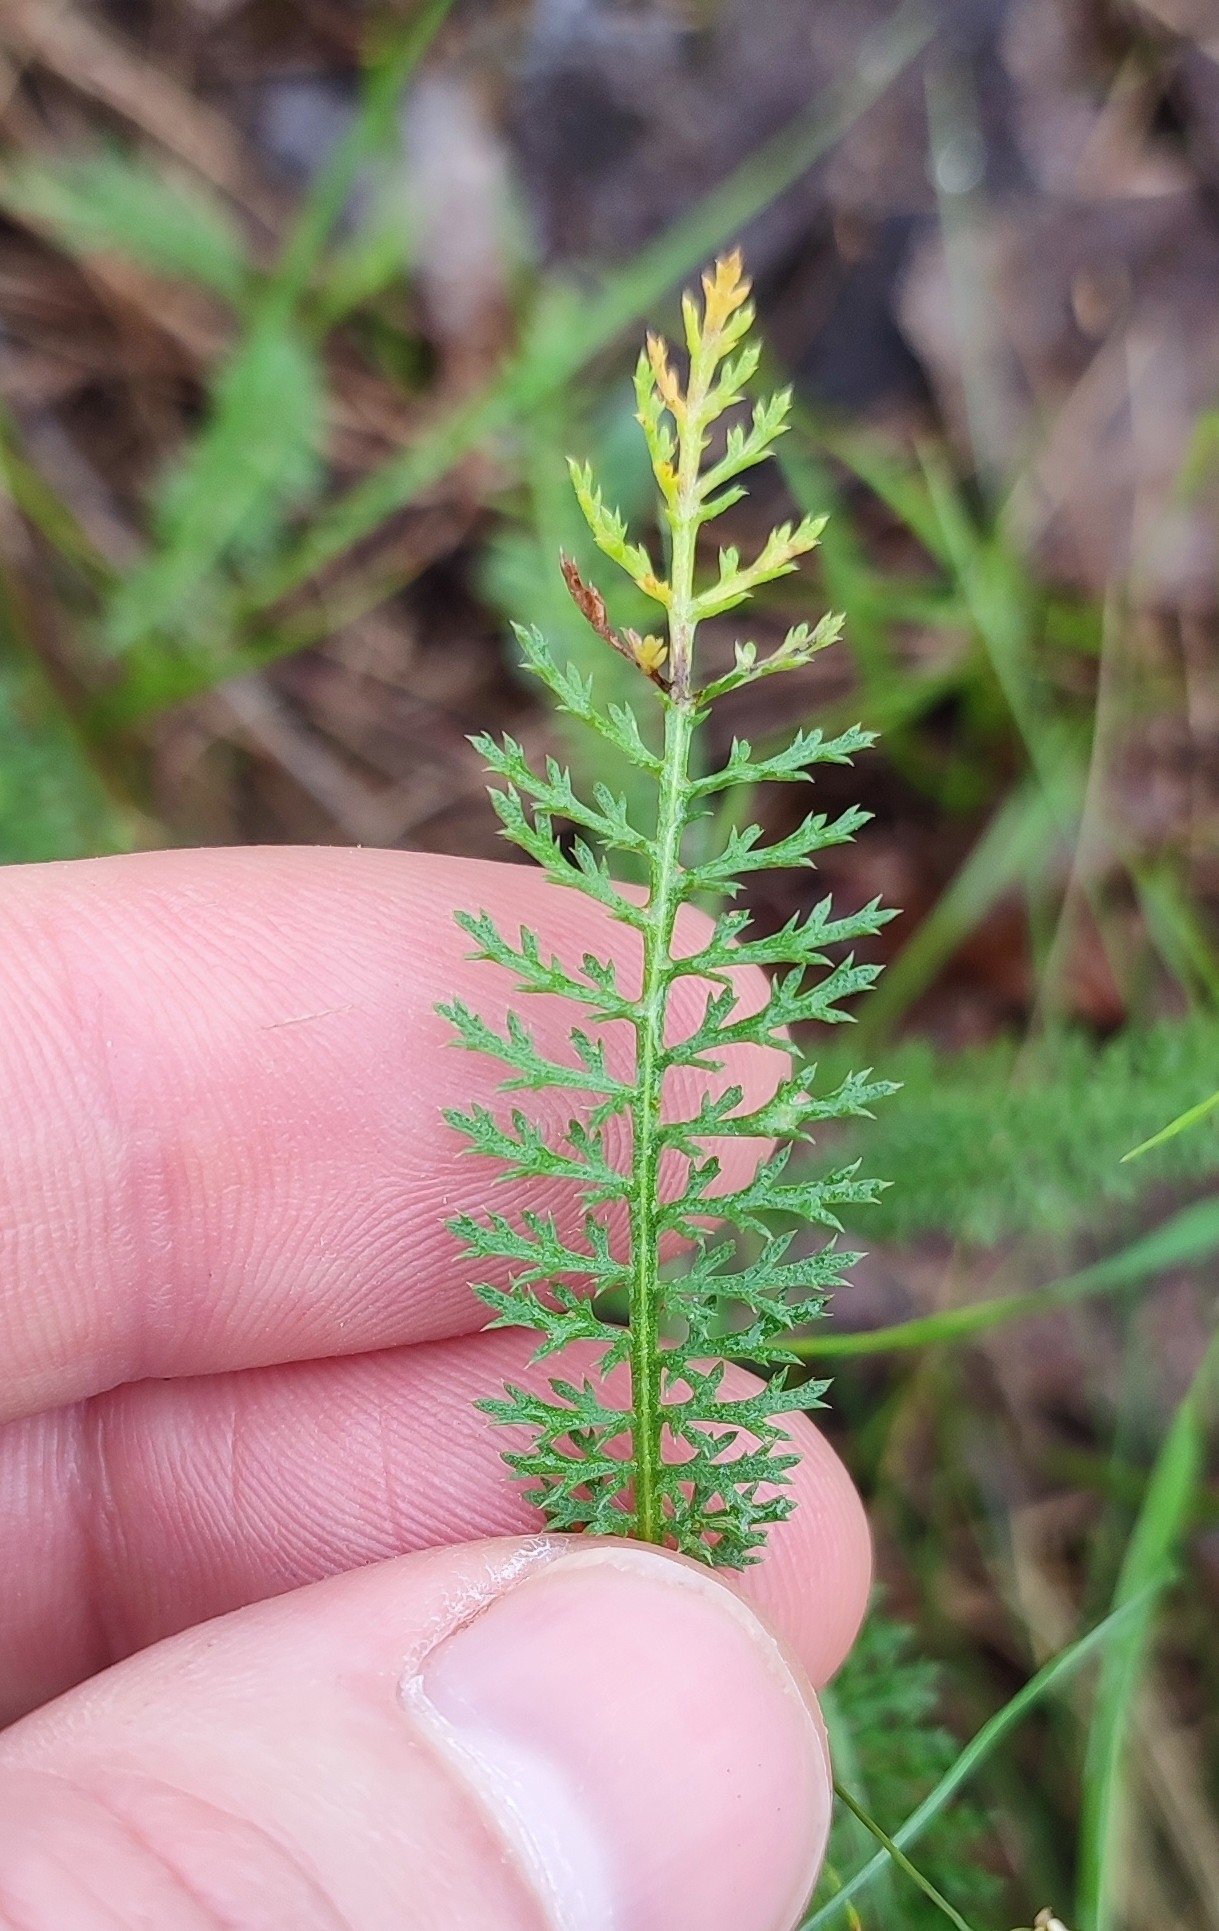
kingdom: Plantae
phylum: Tracheophyta
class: Magnoliopsida
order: Asterales
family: Asteraceae
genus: Achillea
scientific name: Achillea asiatica
